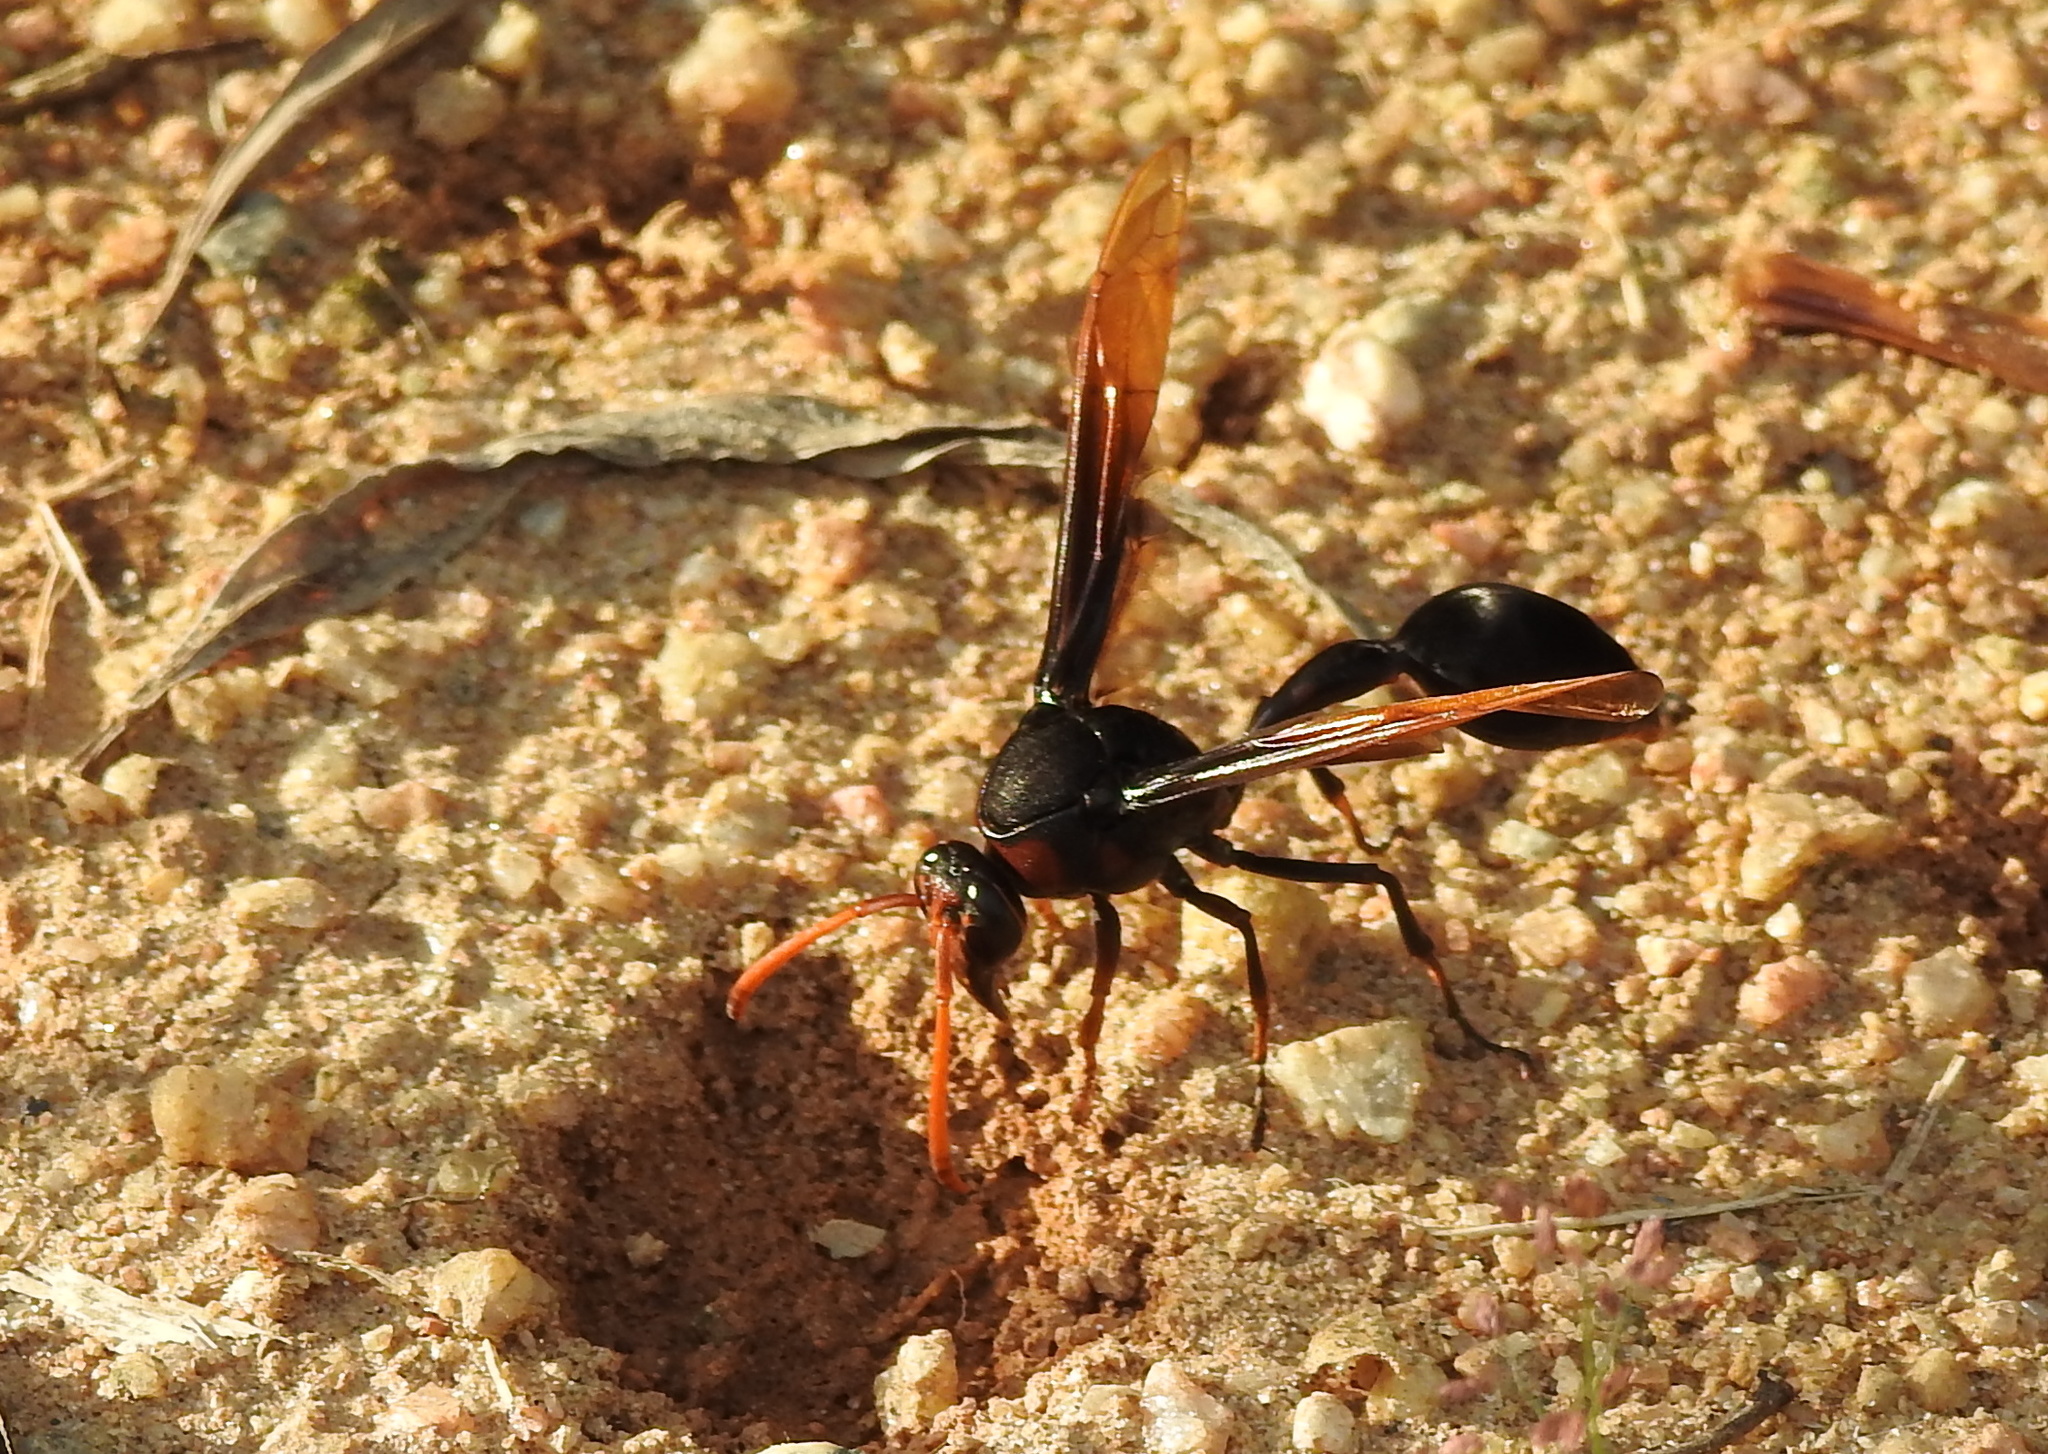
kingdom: Animalia
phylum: Arthropoda
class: Insecta
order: Hymenoptera
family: Eumenidae
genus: Delta
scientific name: Delta pyriforme
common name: Wasp
